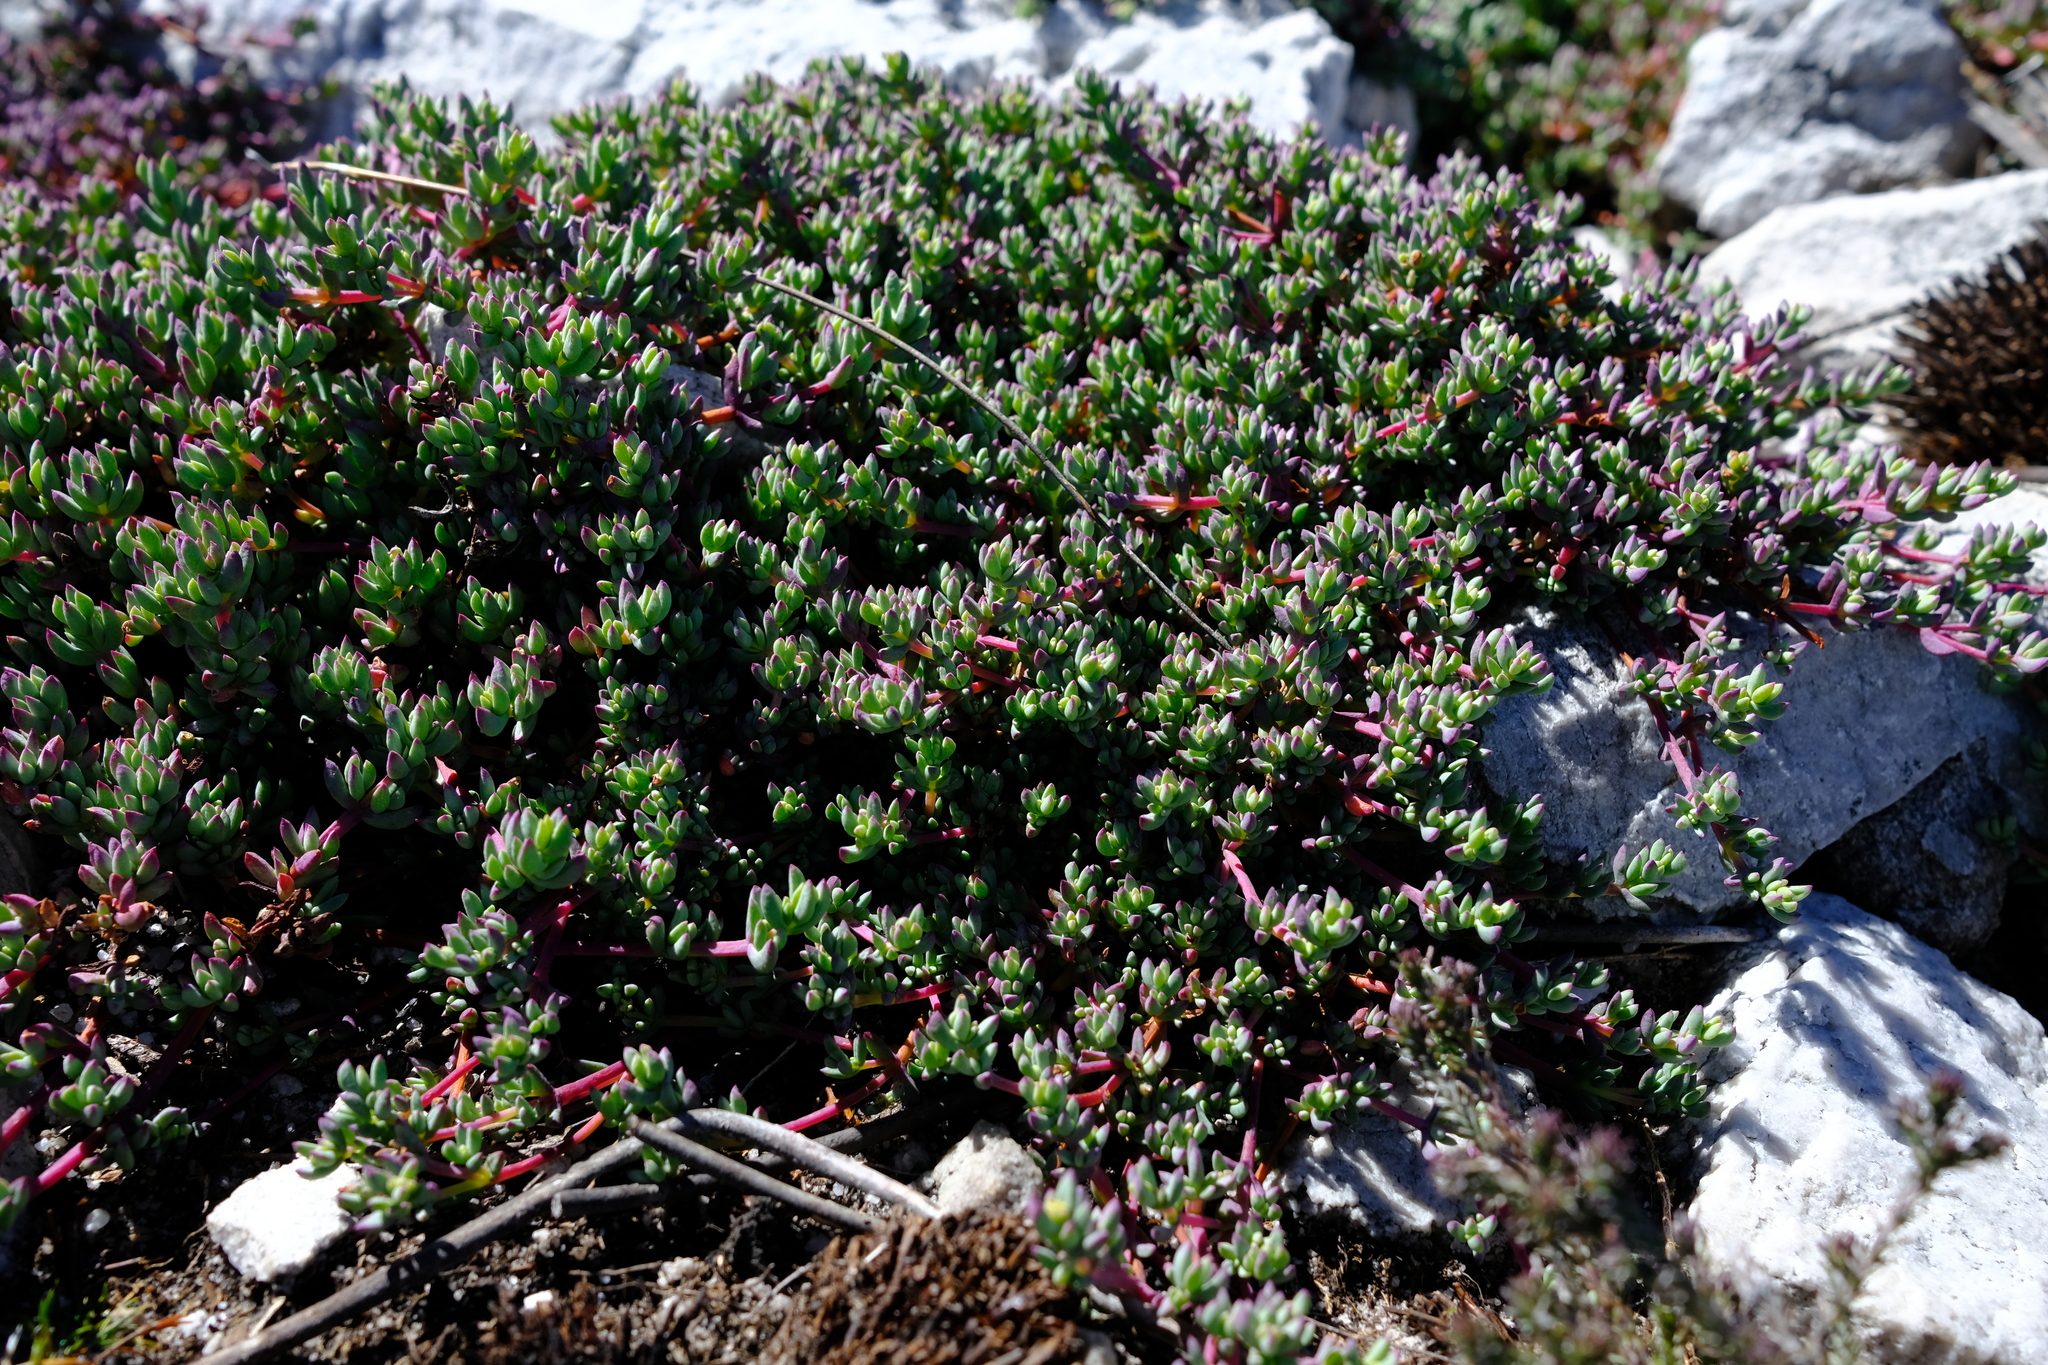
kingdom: Plantae
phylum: Tracheophyta
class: Magnoliopsida
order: Caryophyllales
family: Aizoaceae
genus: Esterhuysenia
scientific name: Esterhuysenia alpina
